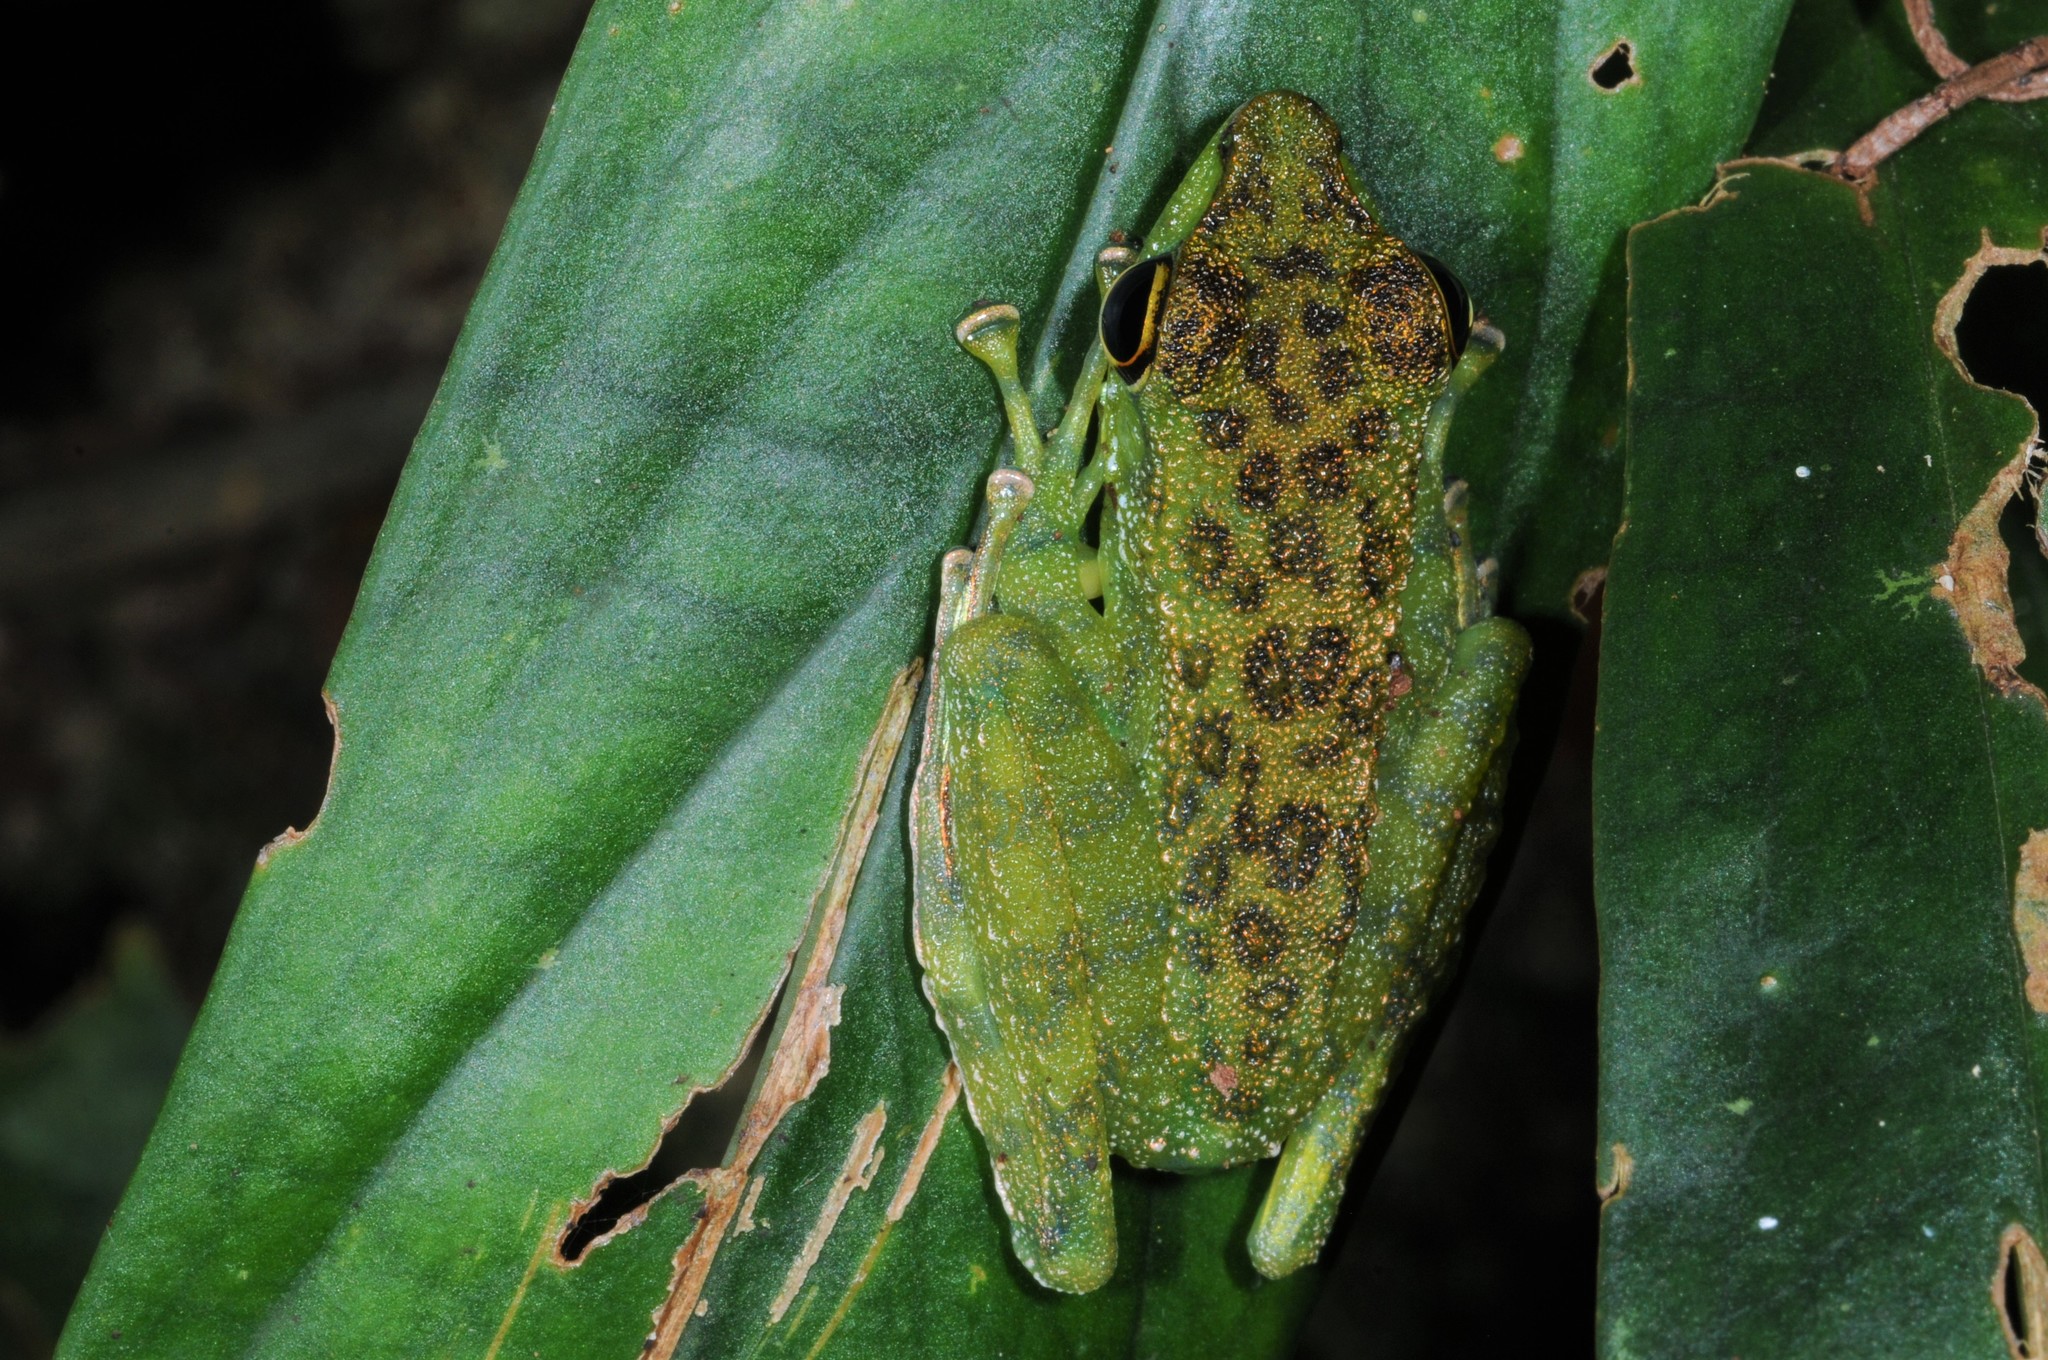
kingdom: Animalia
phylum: Chordata
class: Amphibia
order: Anura
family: Ranidae
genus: Staurois
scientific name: Staurois guttatus
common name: Black-spotted rock frog
